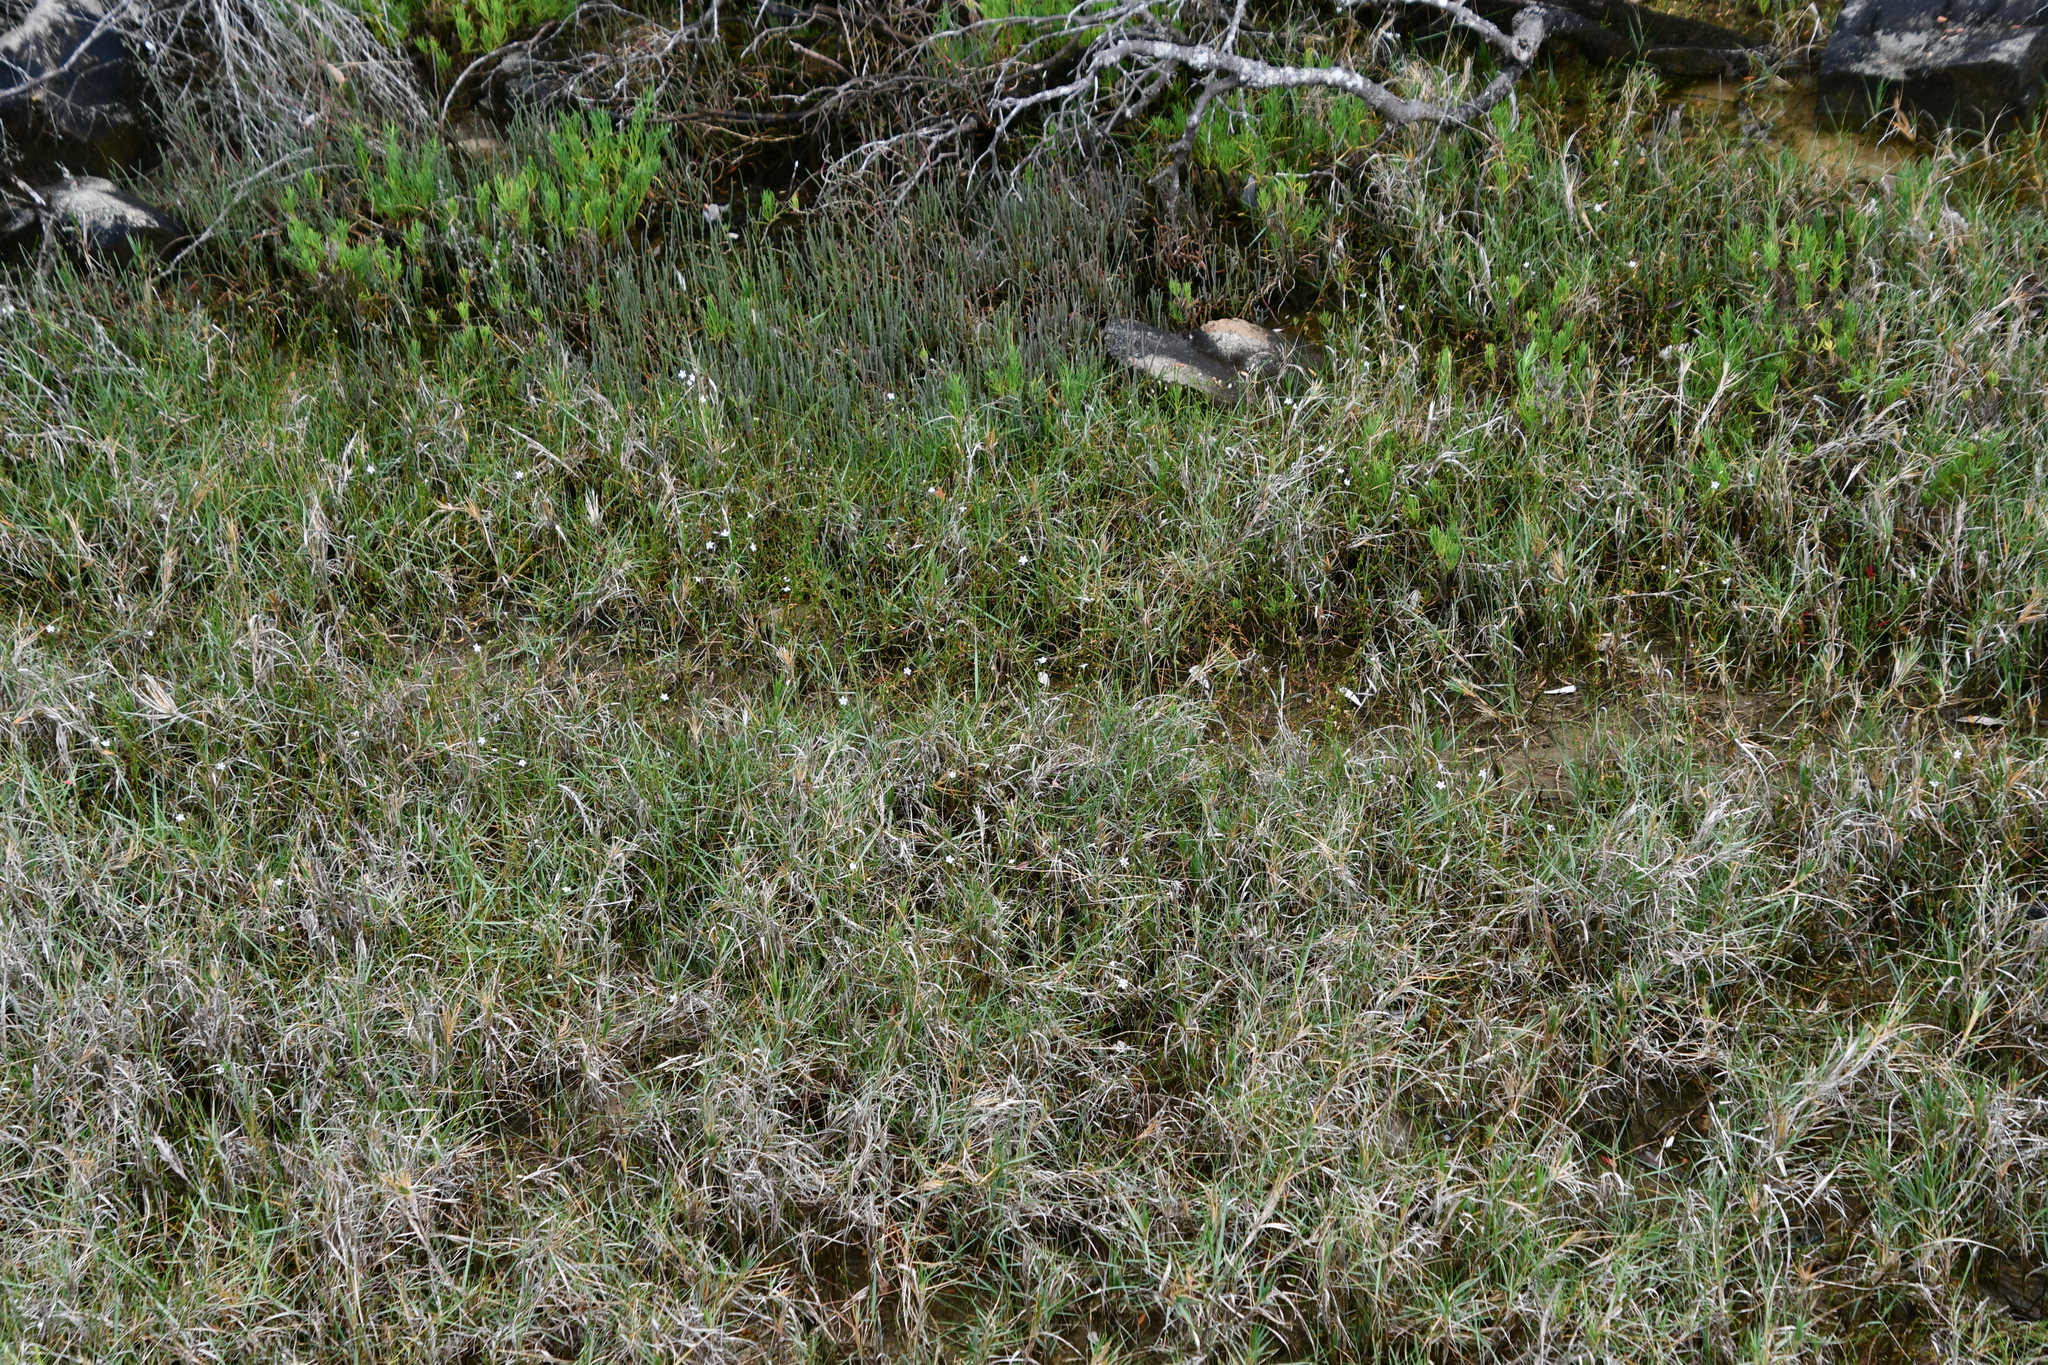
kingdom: Plantae
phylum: Tracheophyta
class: Magnoliopsida
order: Ericales
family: Primulaceae
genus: Samolus
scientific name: Samolus repens
